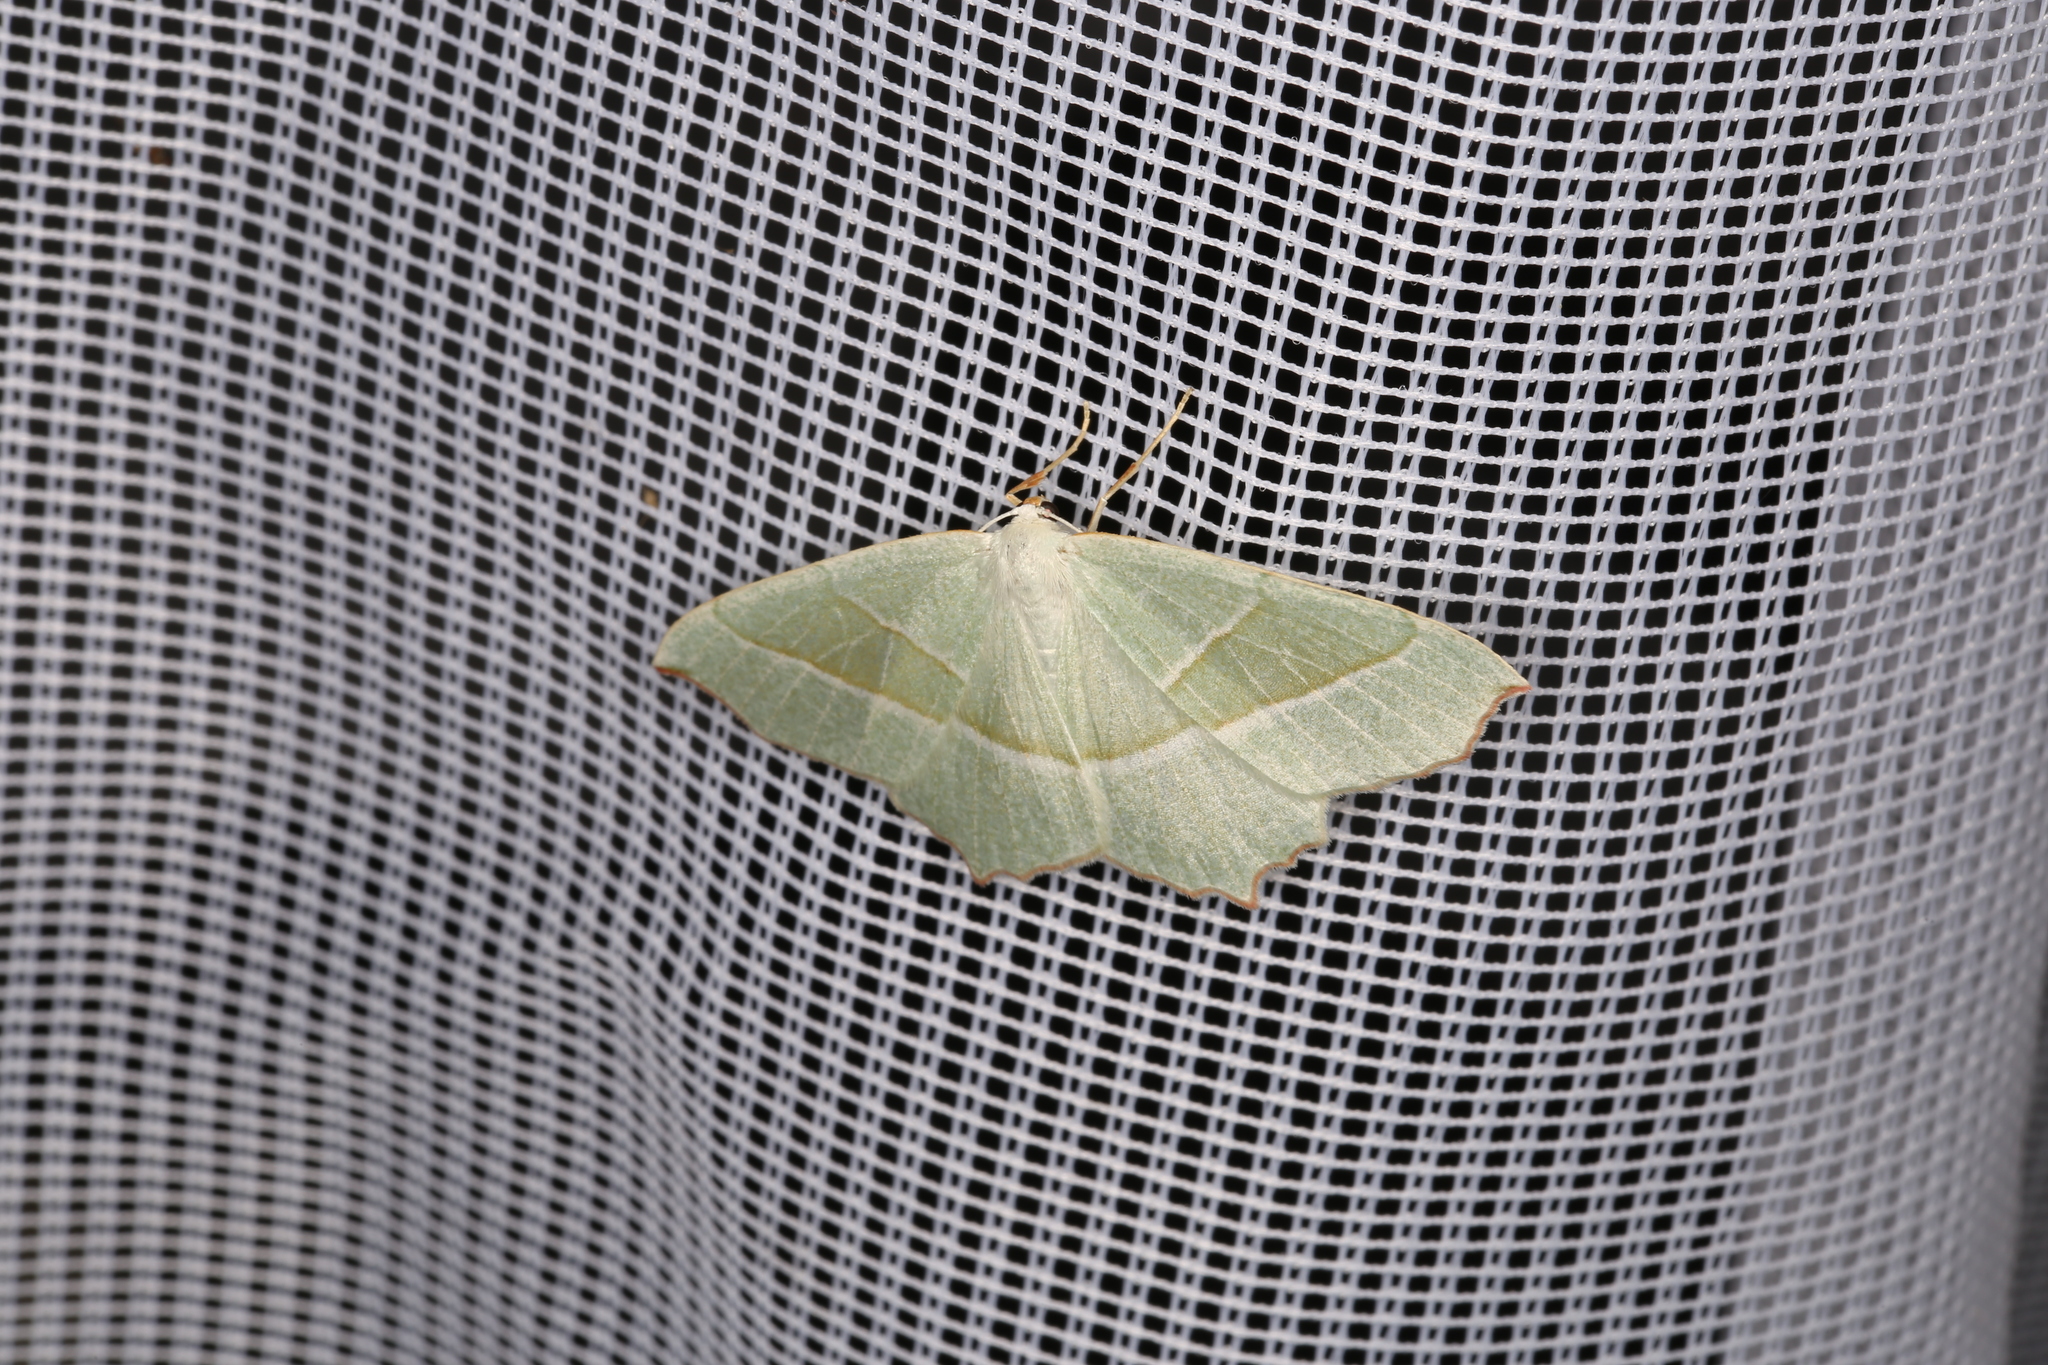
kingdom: Animalia
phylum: Arthropoda
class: Insecta
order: Lepidoptera
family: Geometridae
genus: Campaea
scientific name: Campaea margaritaria
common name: Light emerald
